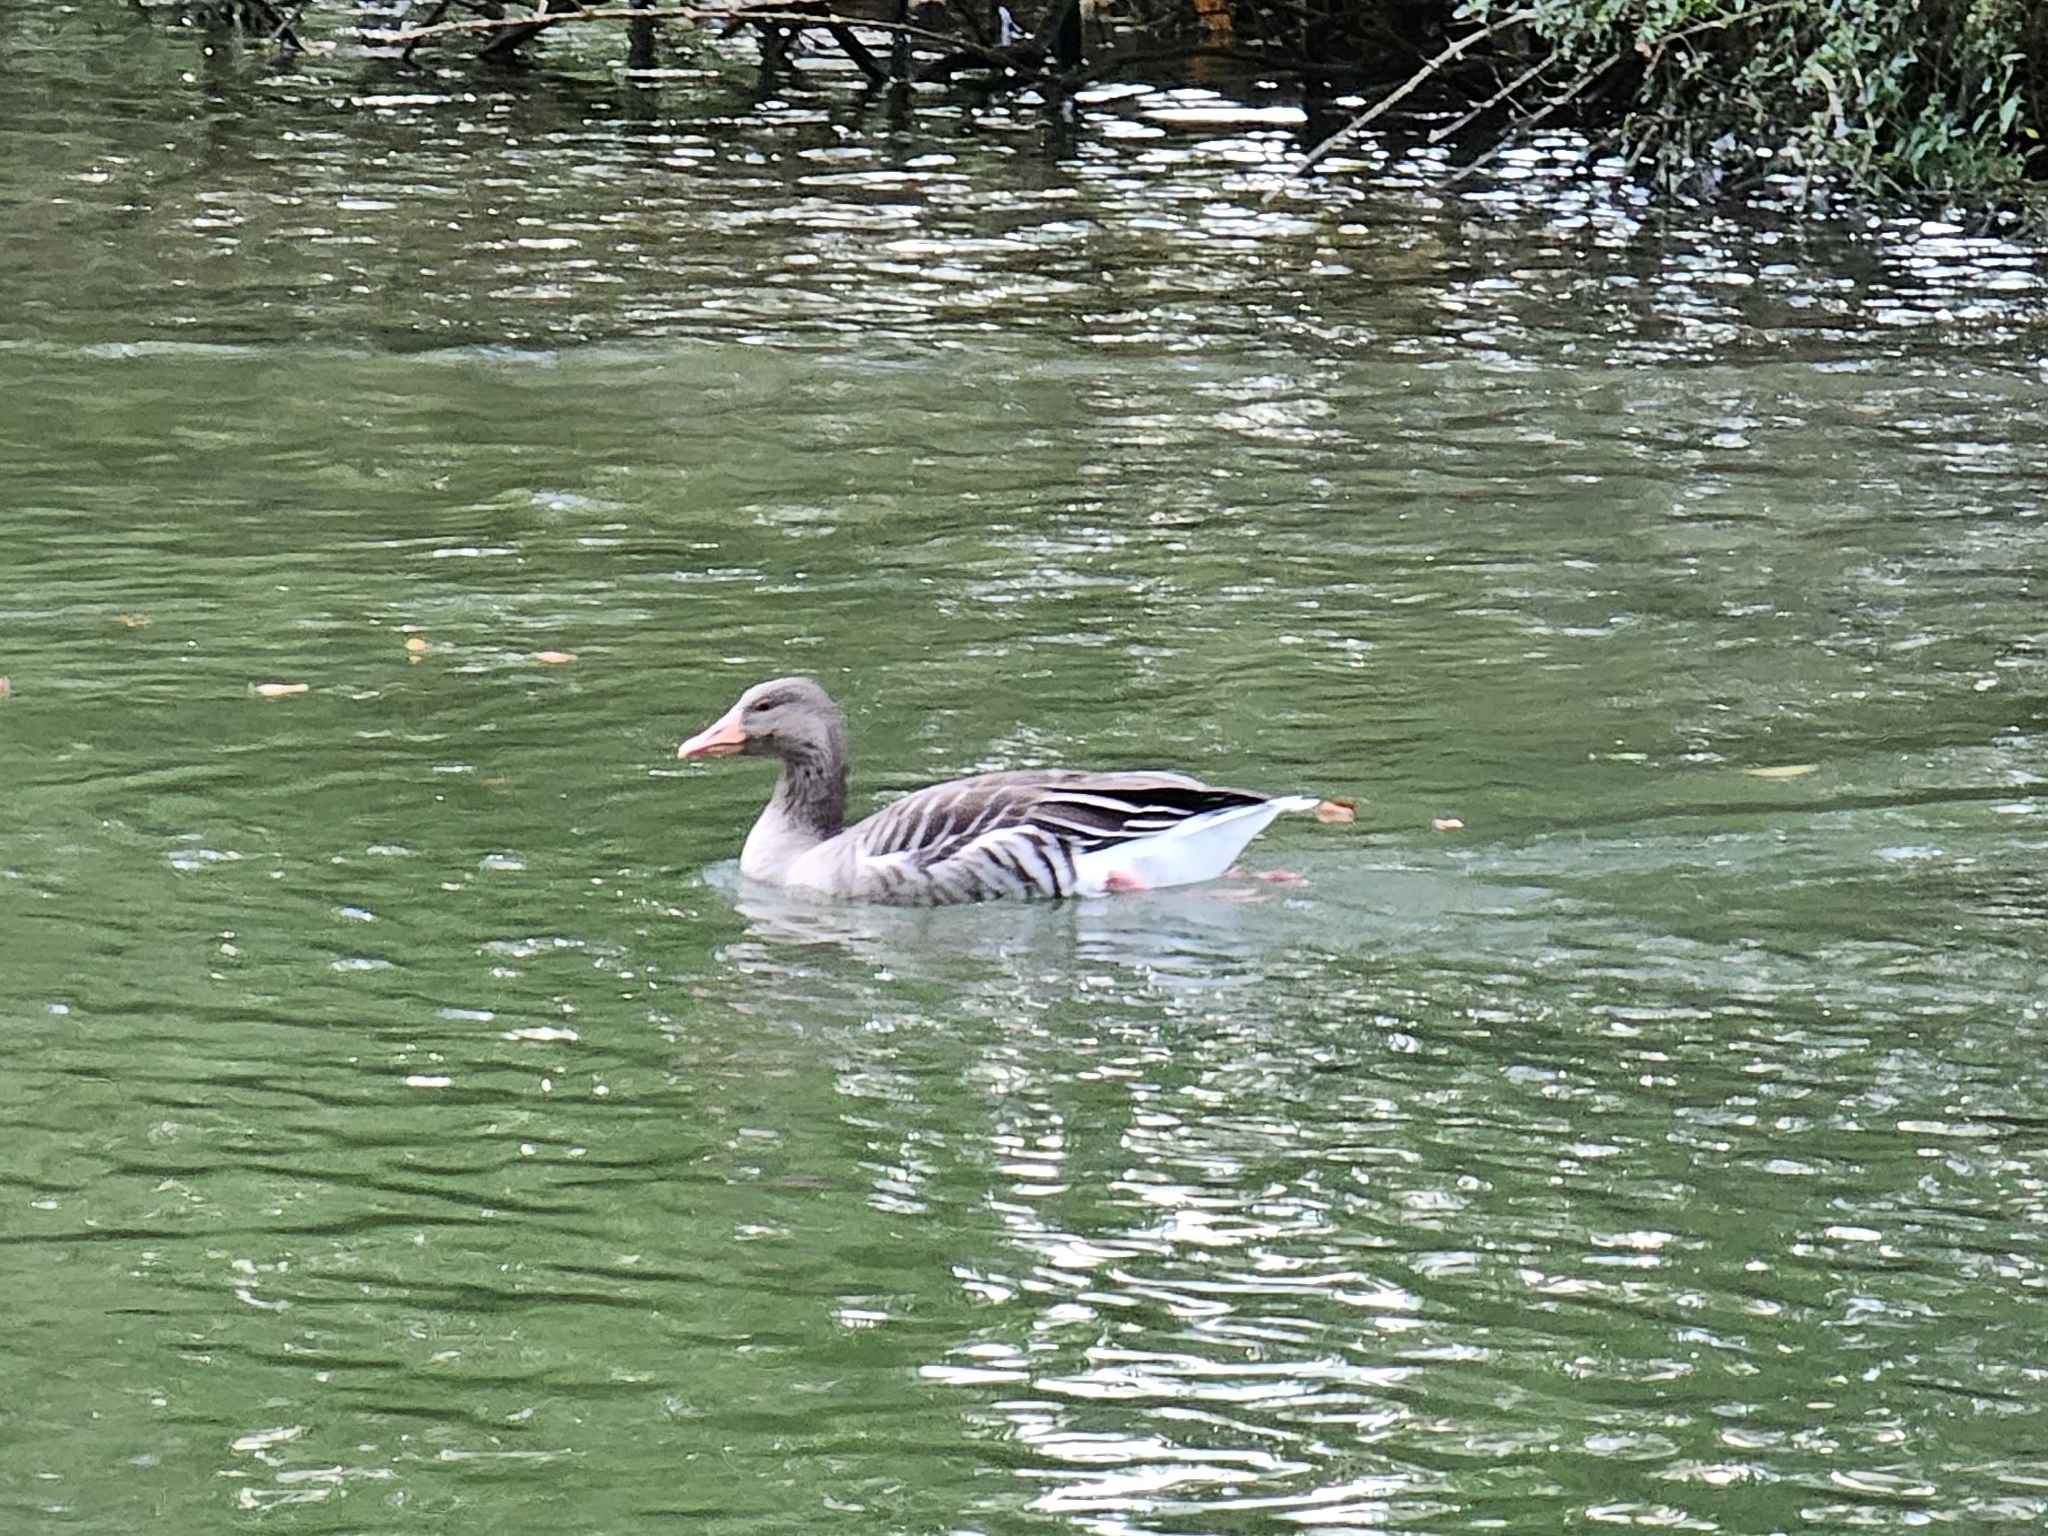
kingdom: Animalia
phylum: Chordata
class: Aves
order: Anseriformes
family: Anatidae
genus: Anser
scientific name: Anser anser
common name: Greylag goose
